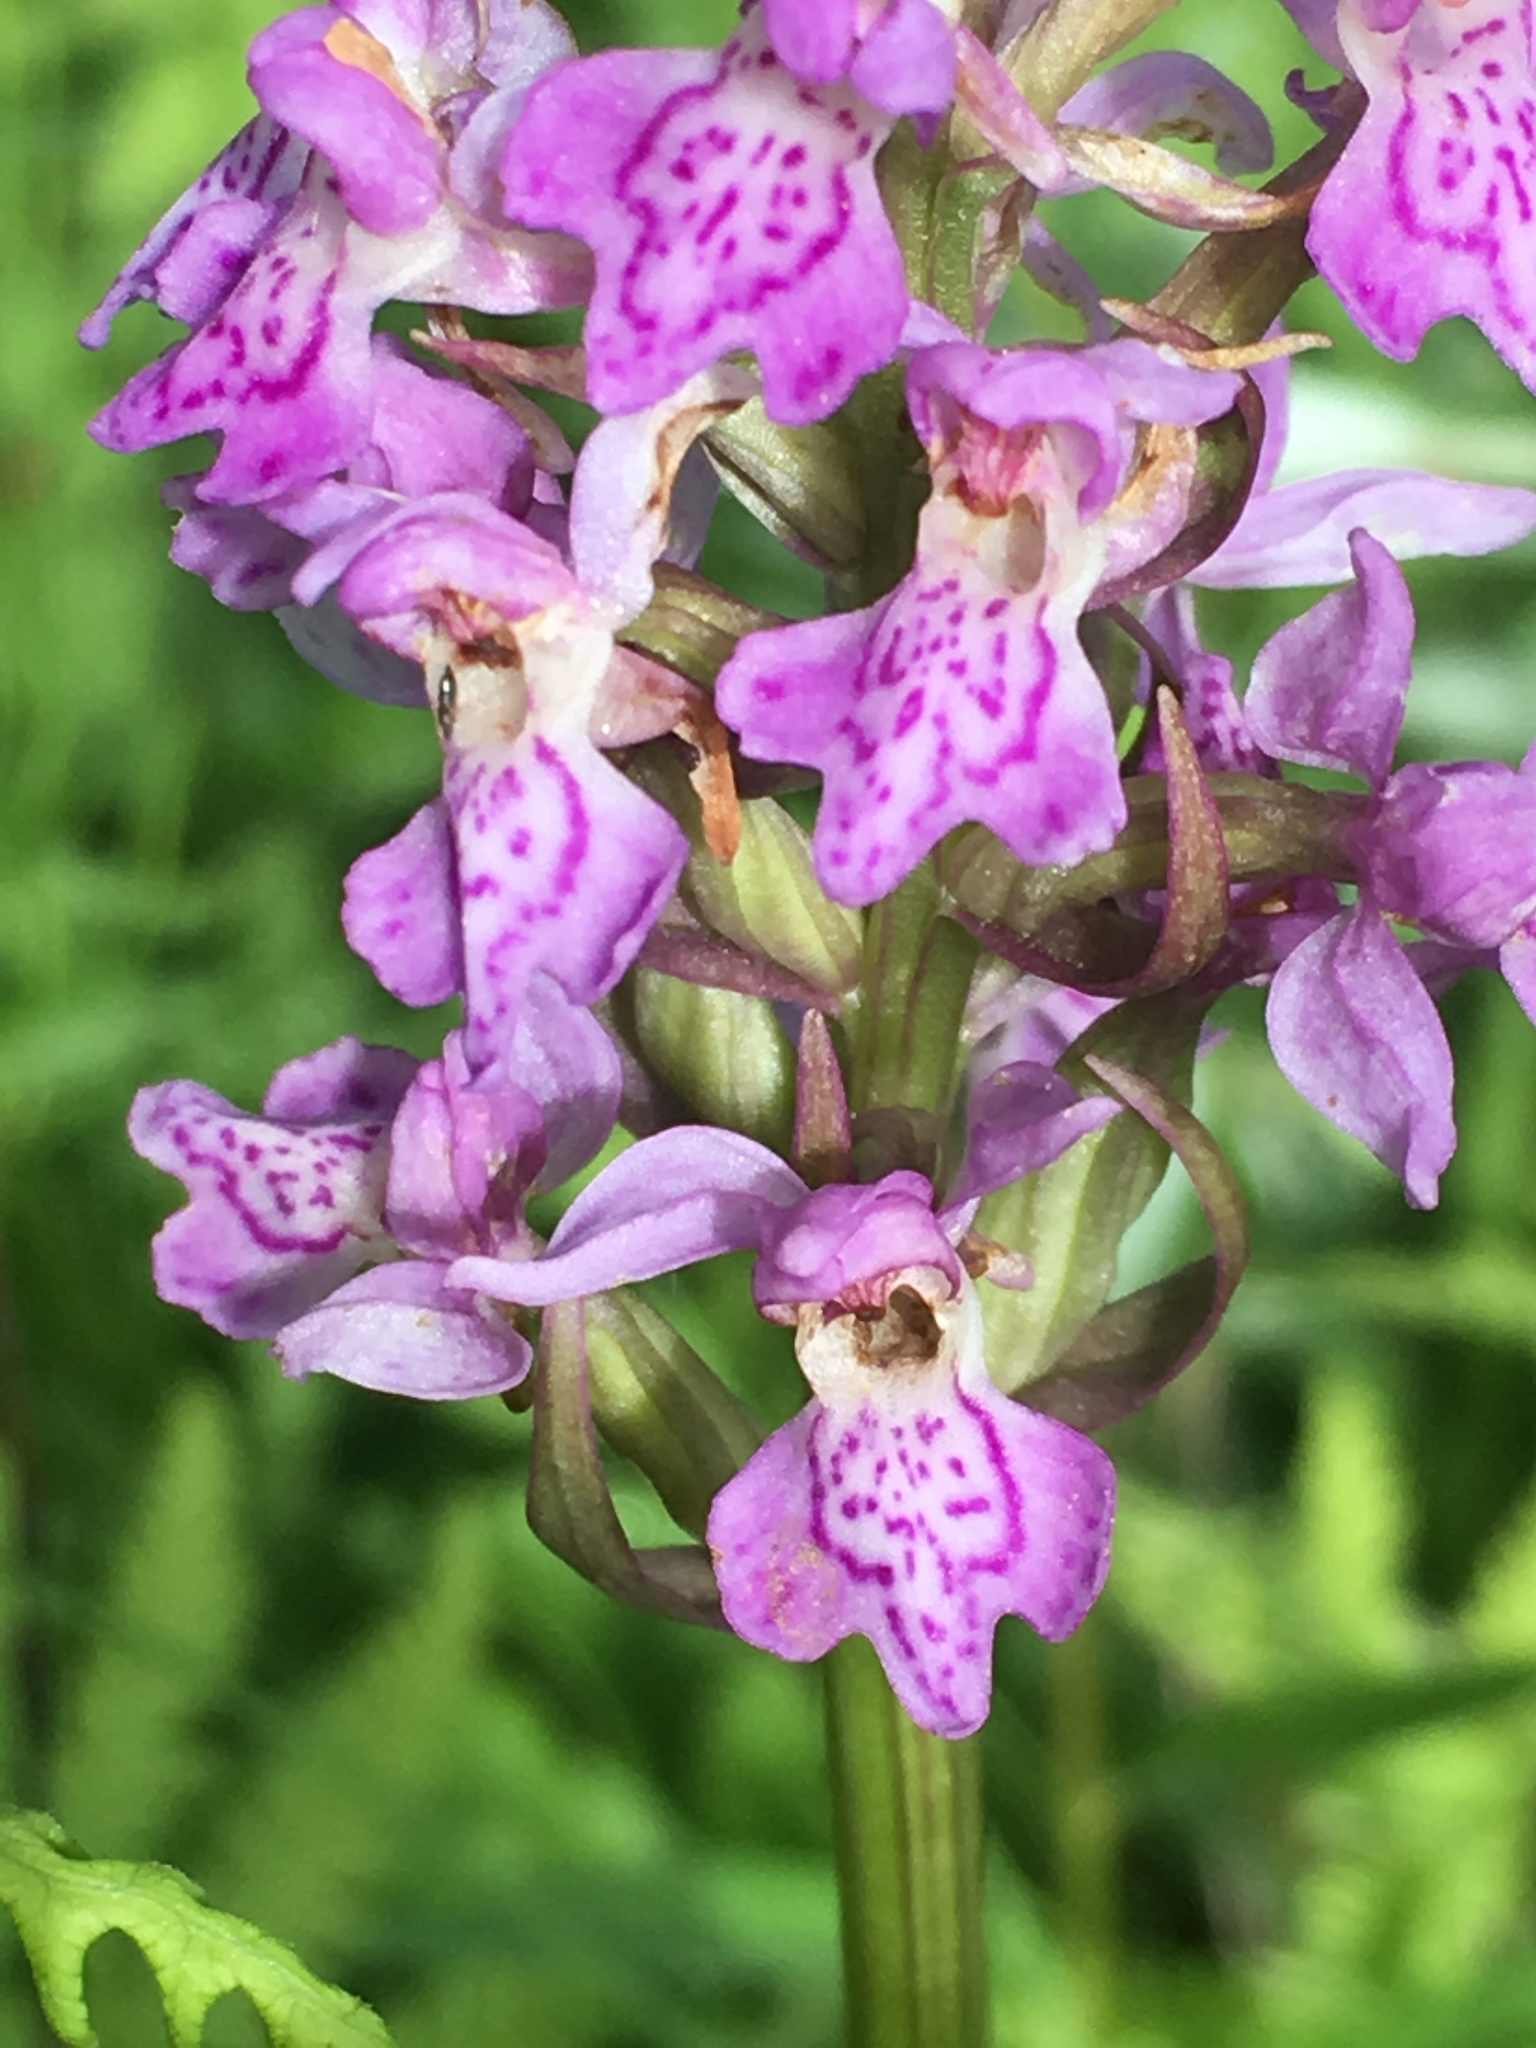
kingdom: Plantae
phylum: Tracheophyta
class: Liliopsida
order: Asparagales
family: Orchidaceae
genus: Dactylorhiza
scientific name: Dactylorhiza majalis
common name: Marsh orchid
